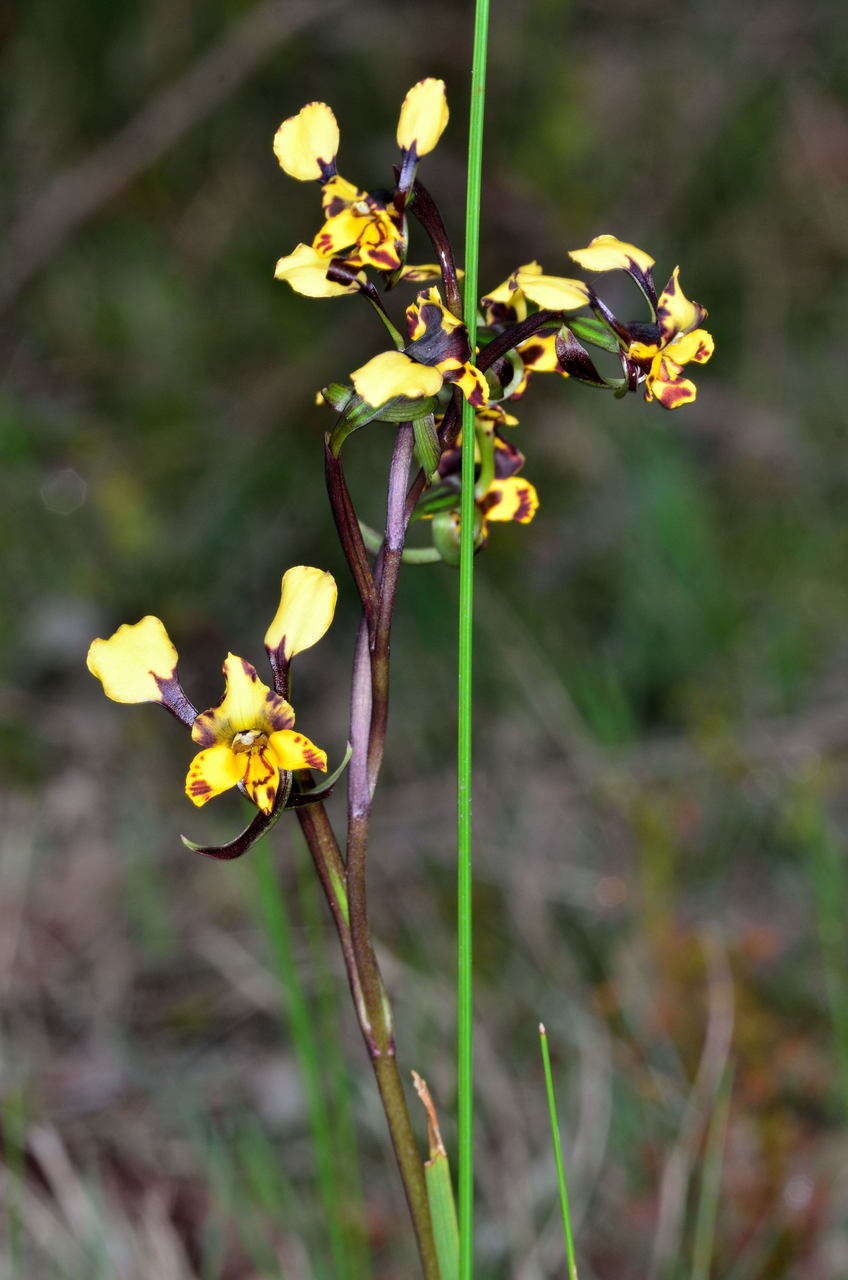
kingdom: Plantae
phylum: Tracheophyta
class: Liliopsida
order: Asparagales
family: Orchidaceae
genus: Diuris
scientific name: Diuris pardina
